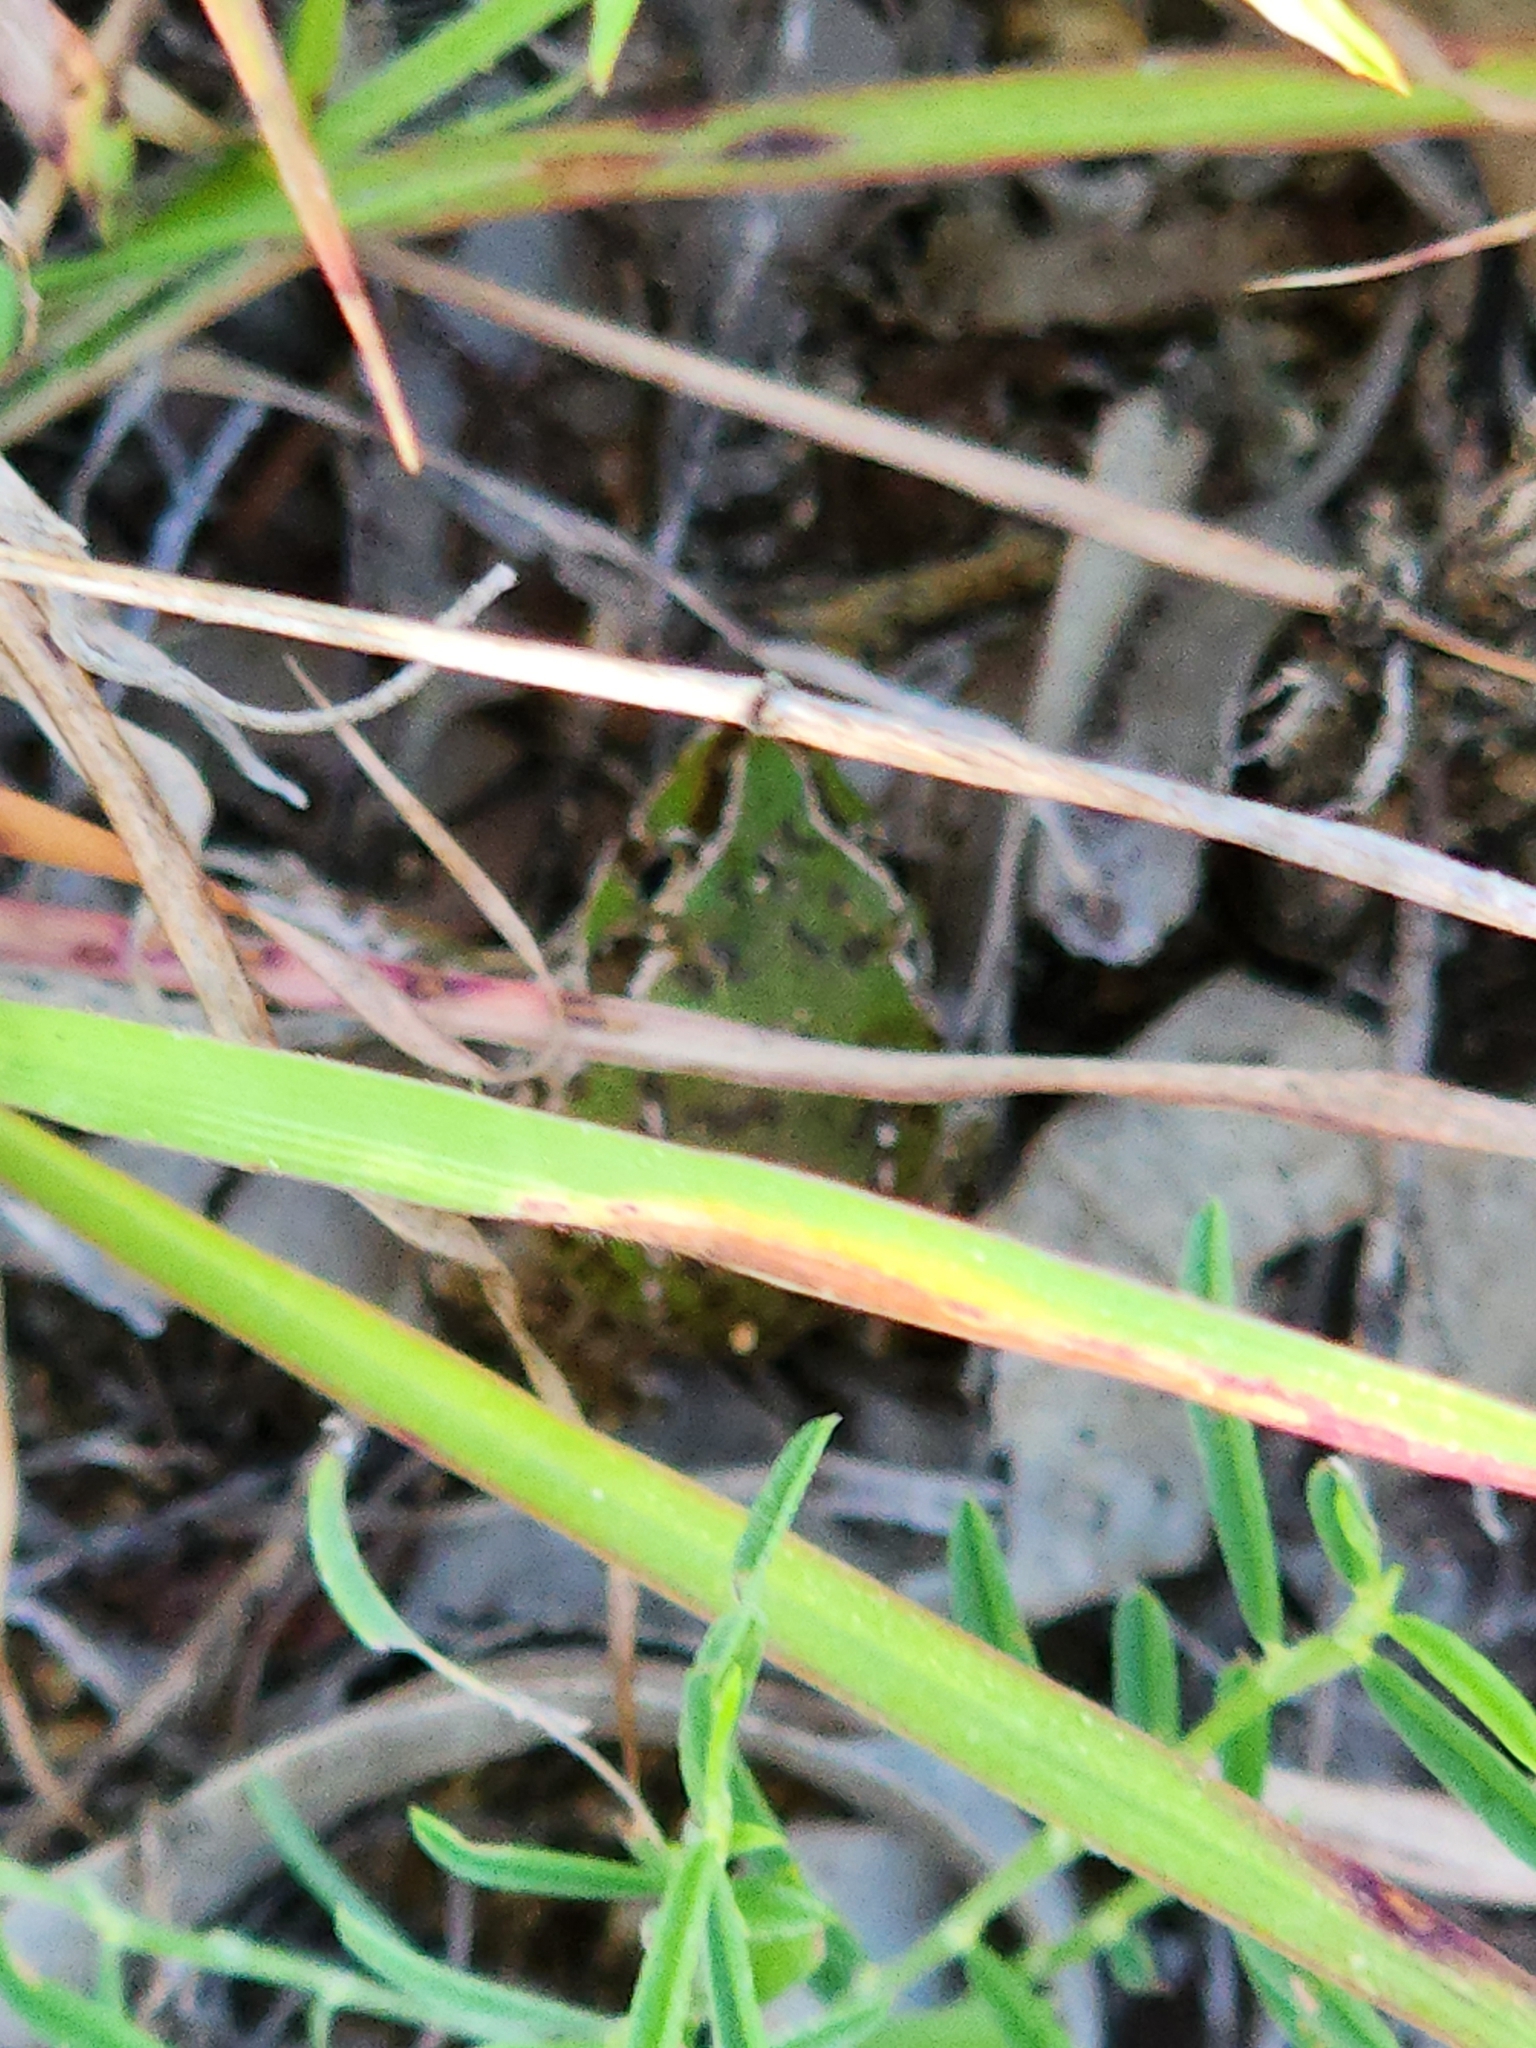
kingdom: Animalia
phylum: Chordata
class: Amphibia
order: Anura
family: Pelodryadidae
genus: Ranoidea
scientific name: Ranoidea novaehollandiae
